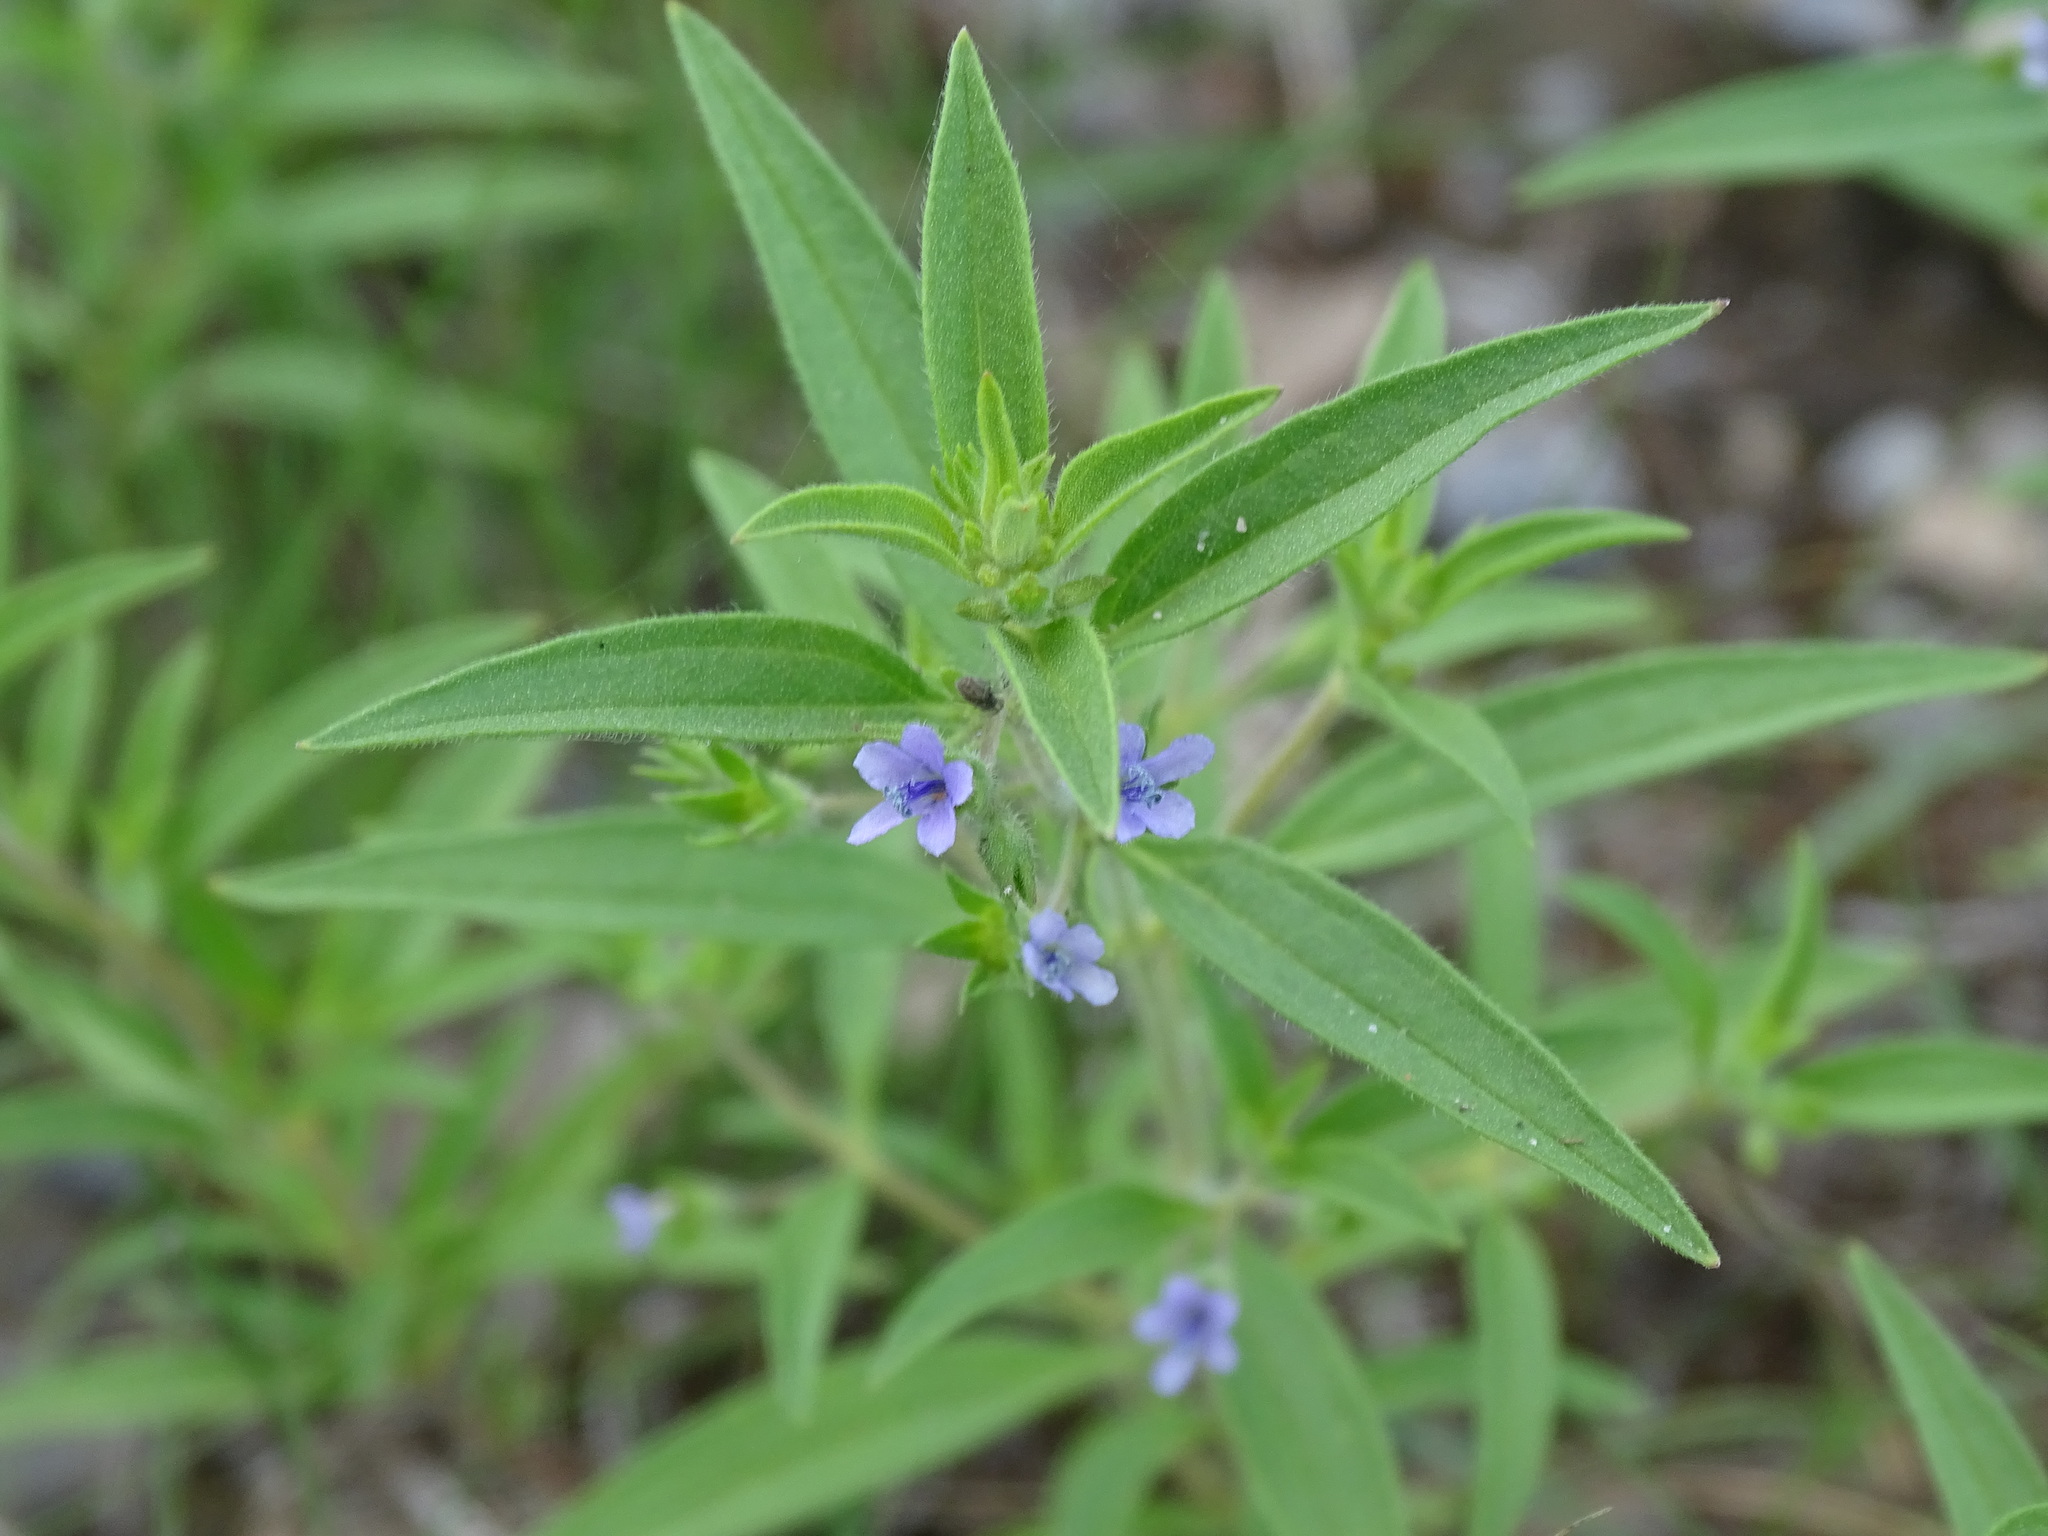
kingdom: Plantae
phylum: Tracheophyta
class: Magnoliopsida
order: Lamiales
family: Lamiaceae
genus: Trichostema
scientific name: Trichostema brachiatum
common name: False pennyroyal
